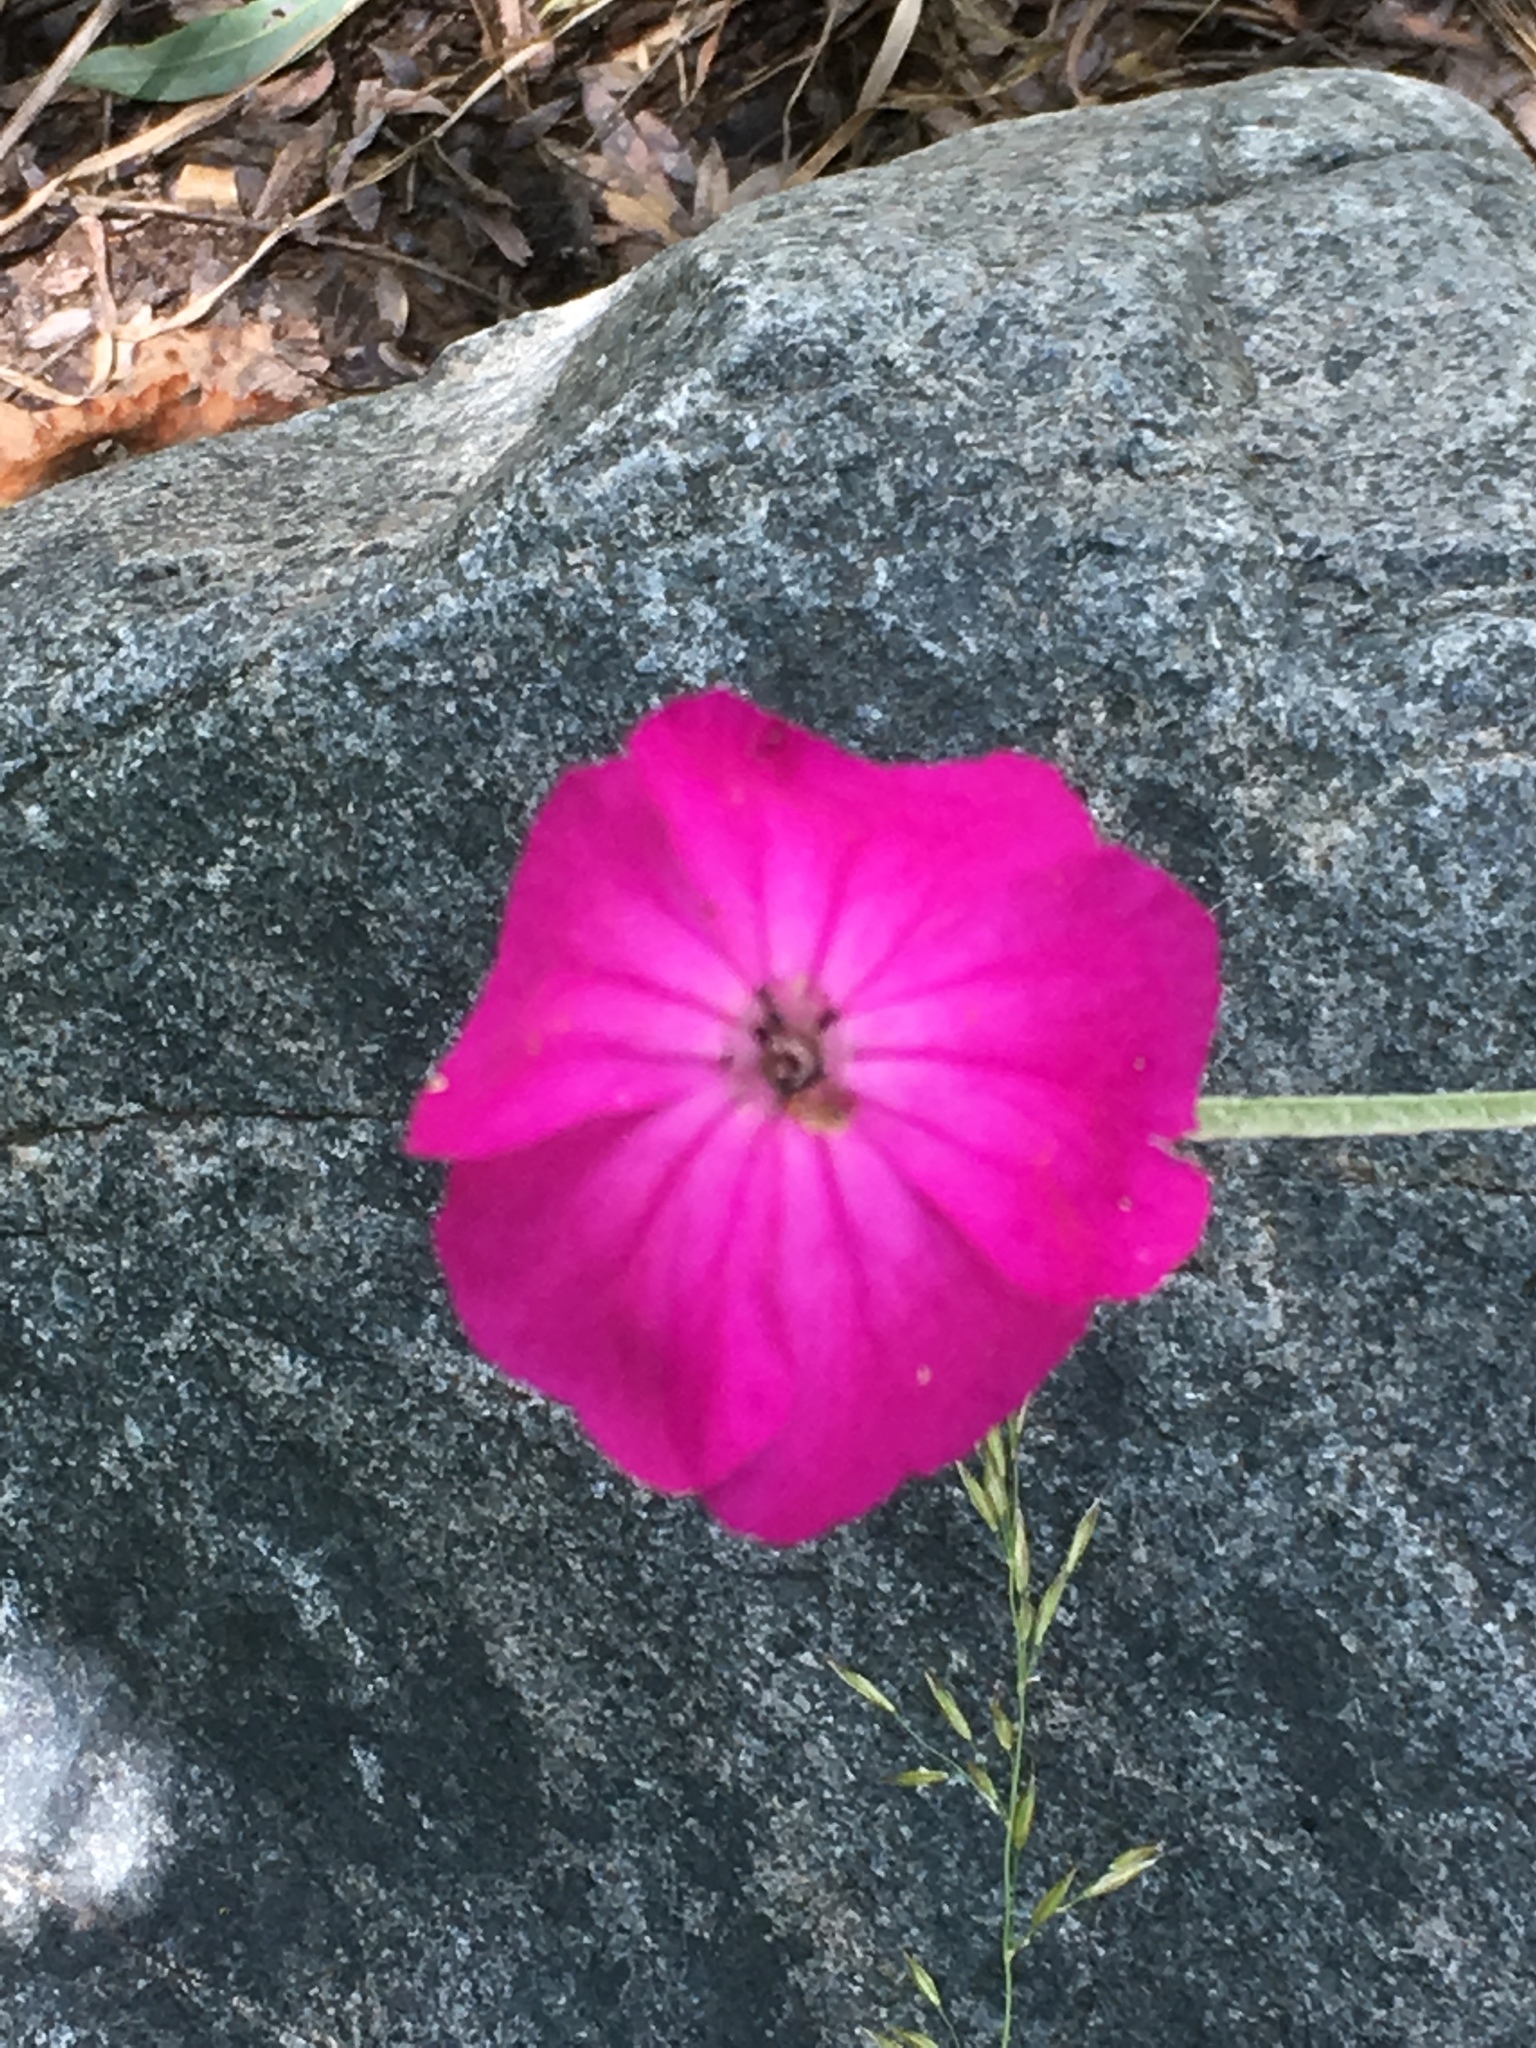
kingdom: Plantae
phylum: Tracheophyta
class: Magnoliopsida
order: Caryophyllales
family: Caryophyllaceae
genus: Silene
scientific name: Silene coronaria
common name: Rose campion
